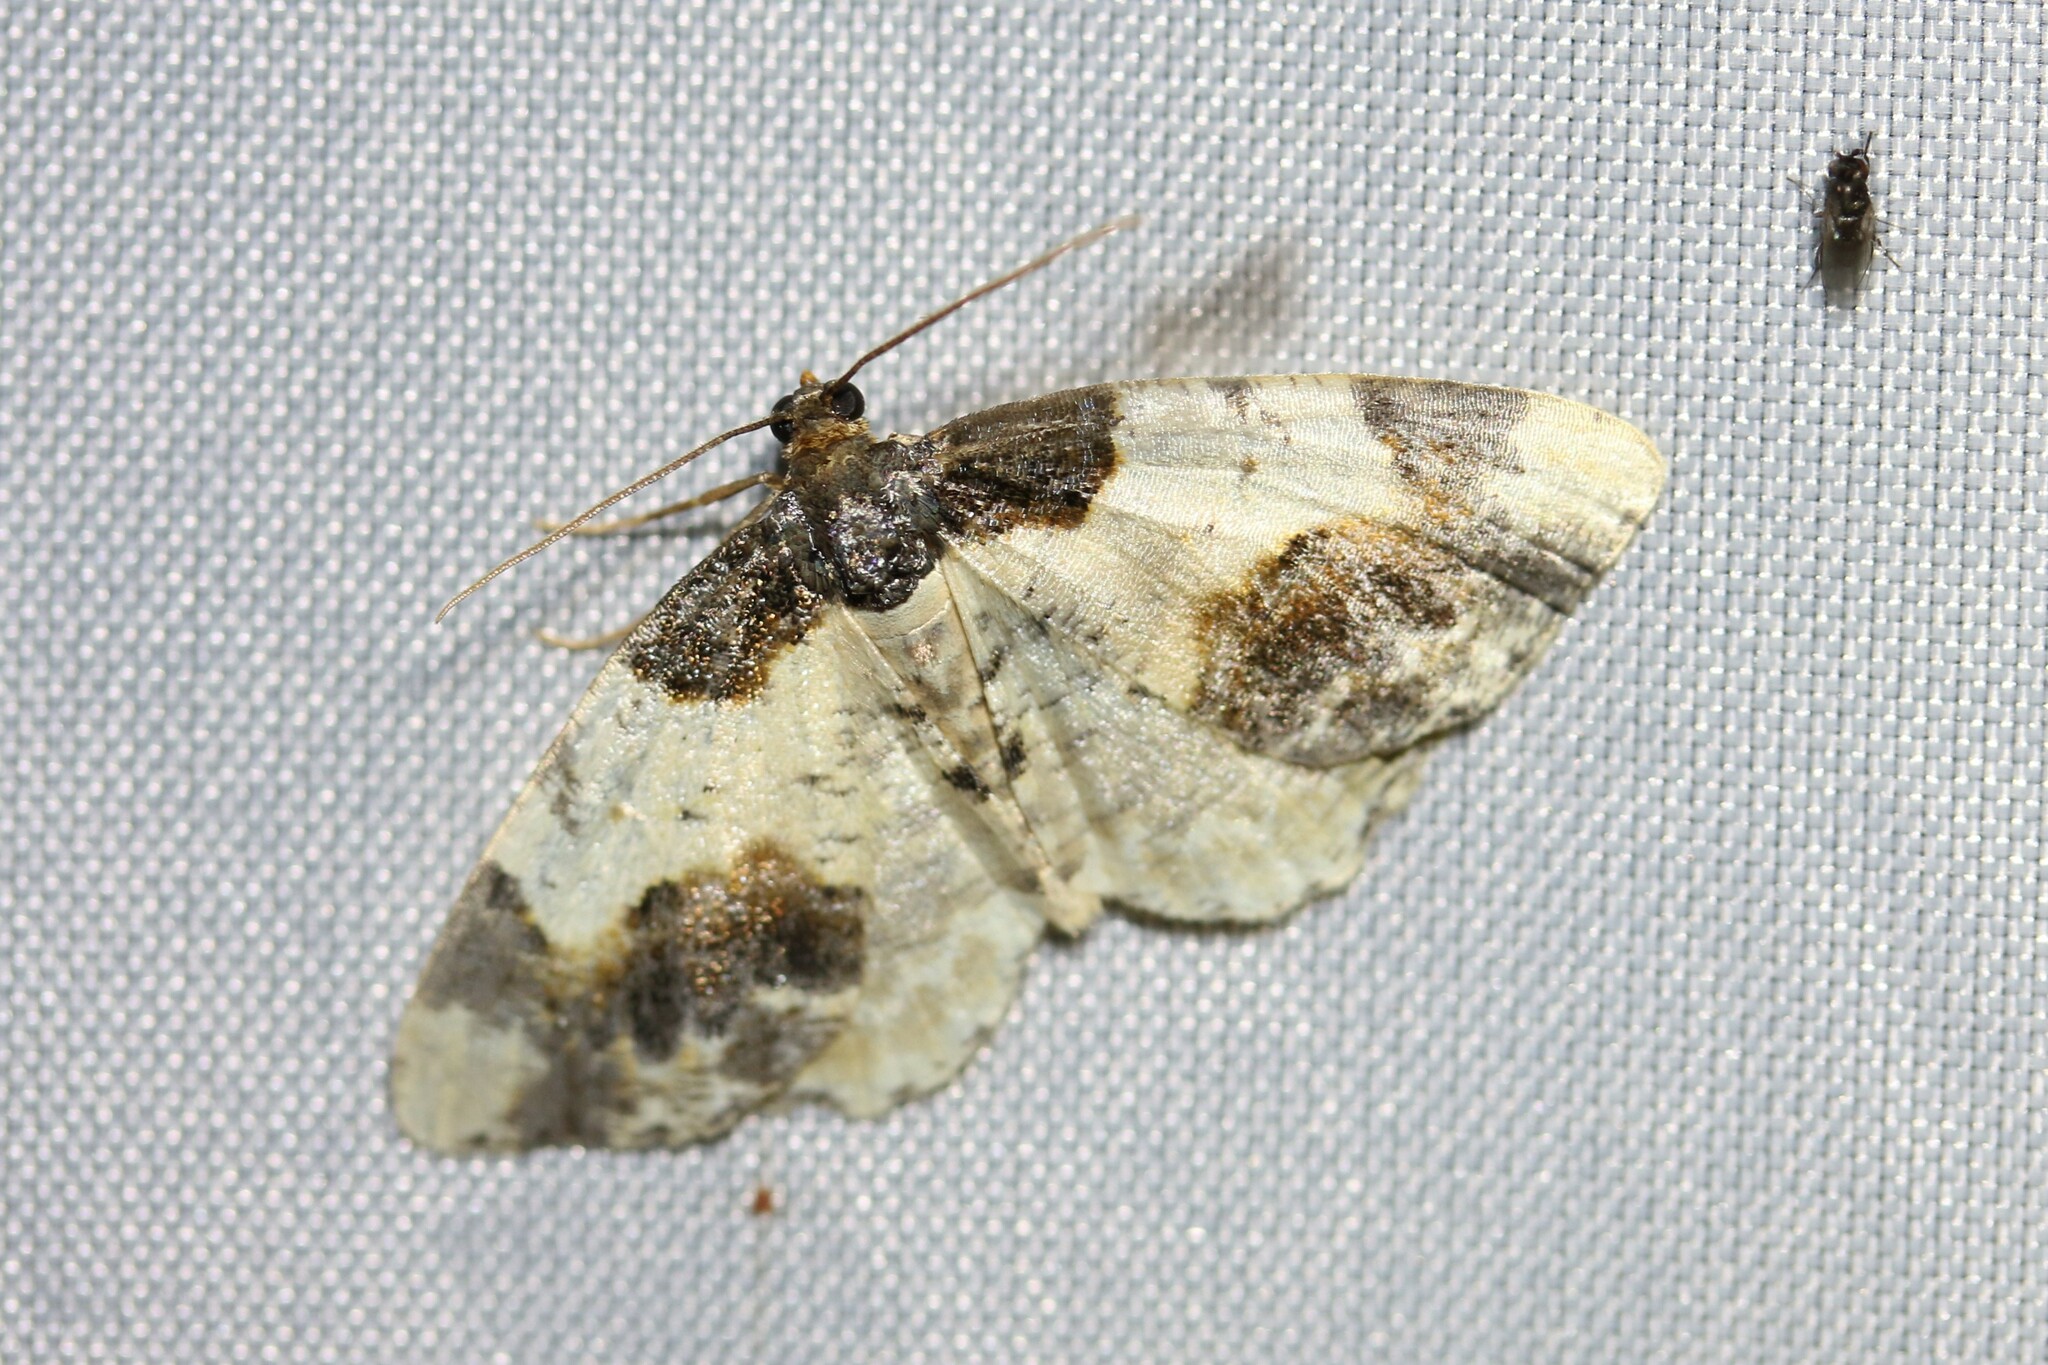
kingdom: Animalia
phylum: Arthropoda
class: Insecta
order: Lepidoptera
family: Geometridae
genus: Ligdia
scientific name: Ligdia adustata
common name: Scorched carpet
